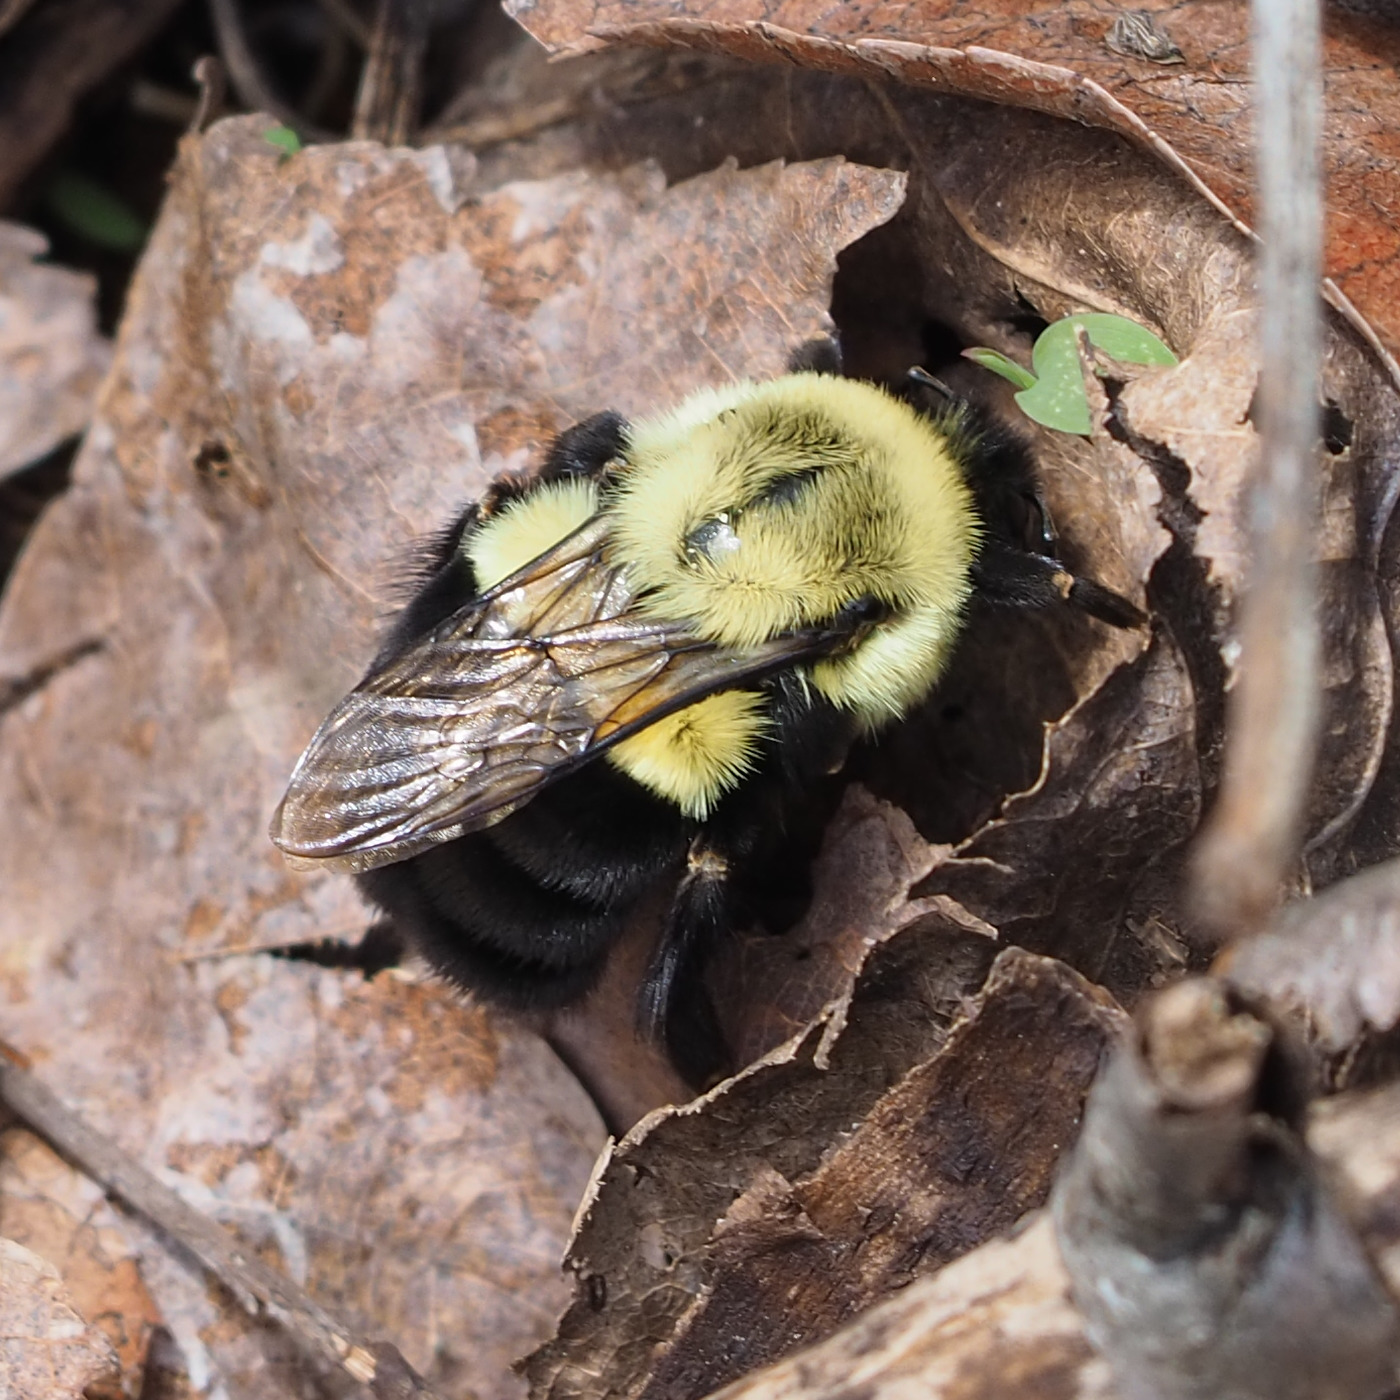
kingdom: Animalia
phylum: Arthropoda
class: Insecta
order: Hymenoptera
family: Apidae
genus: Bombus
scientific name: Bombus impatiens
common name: Common eastern bumble bee
